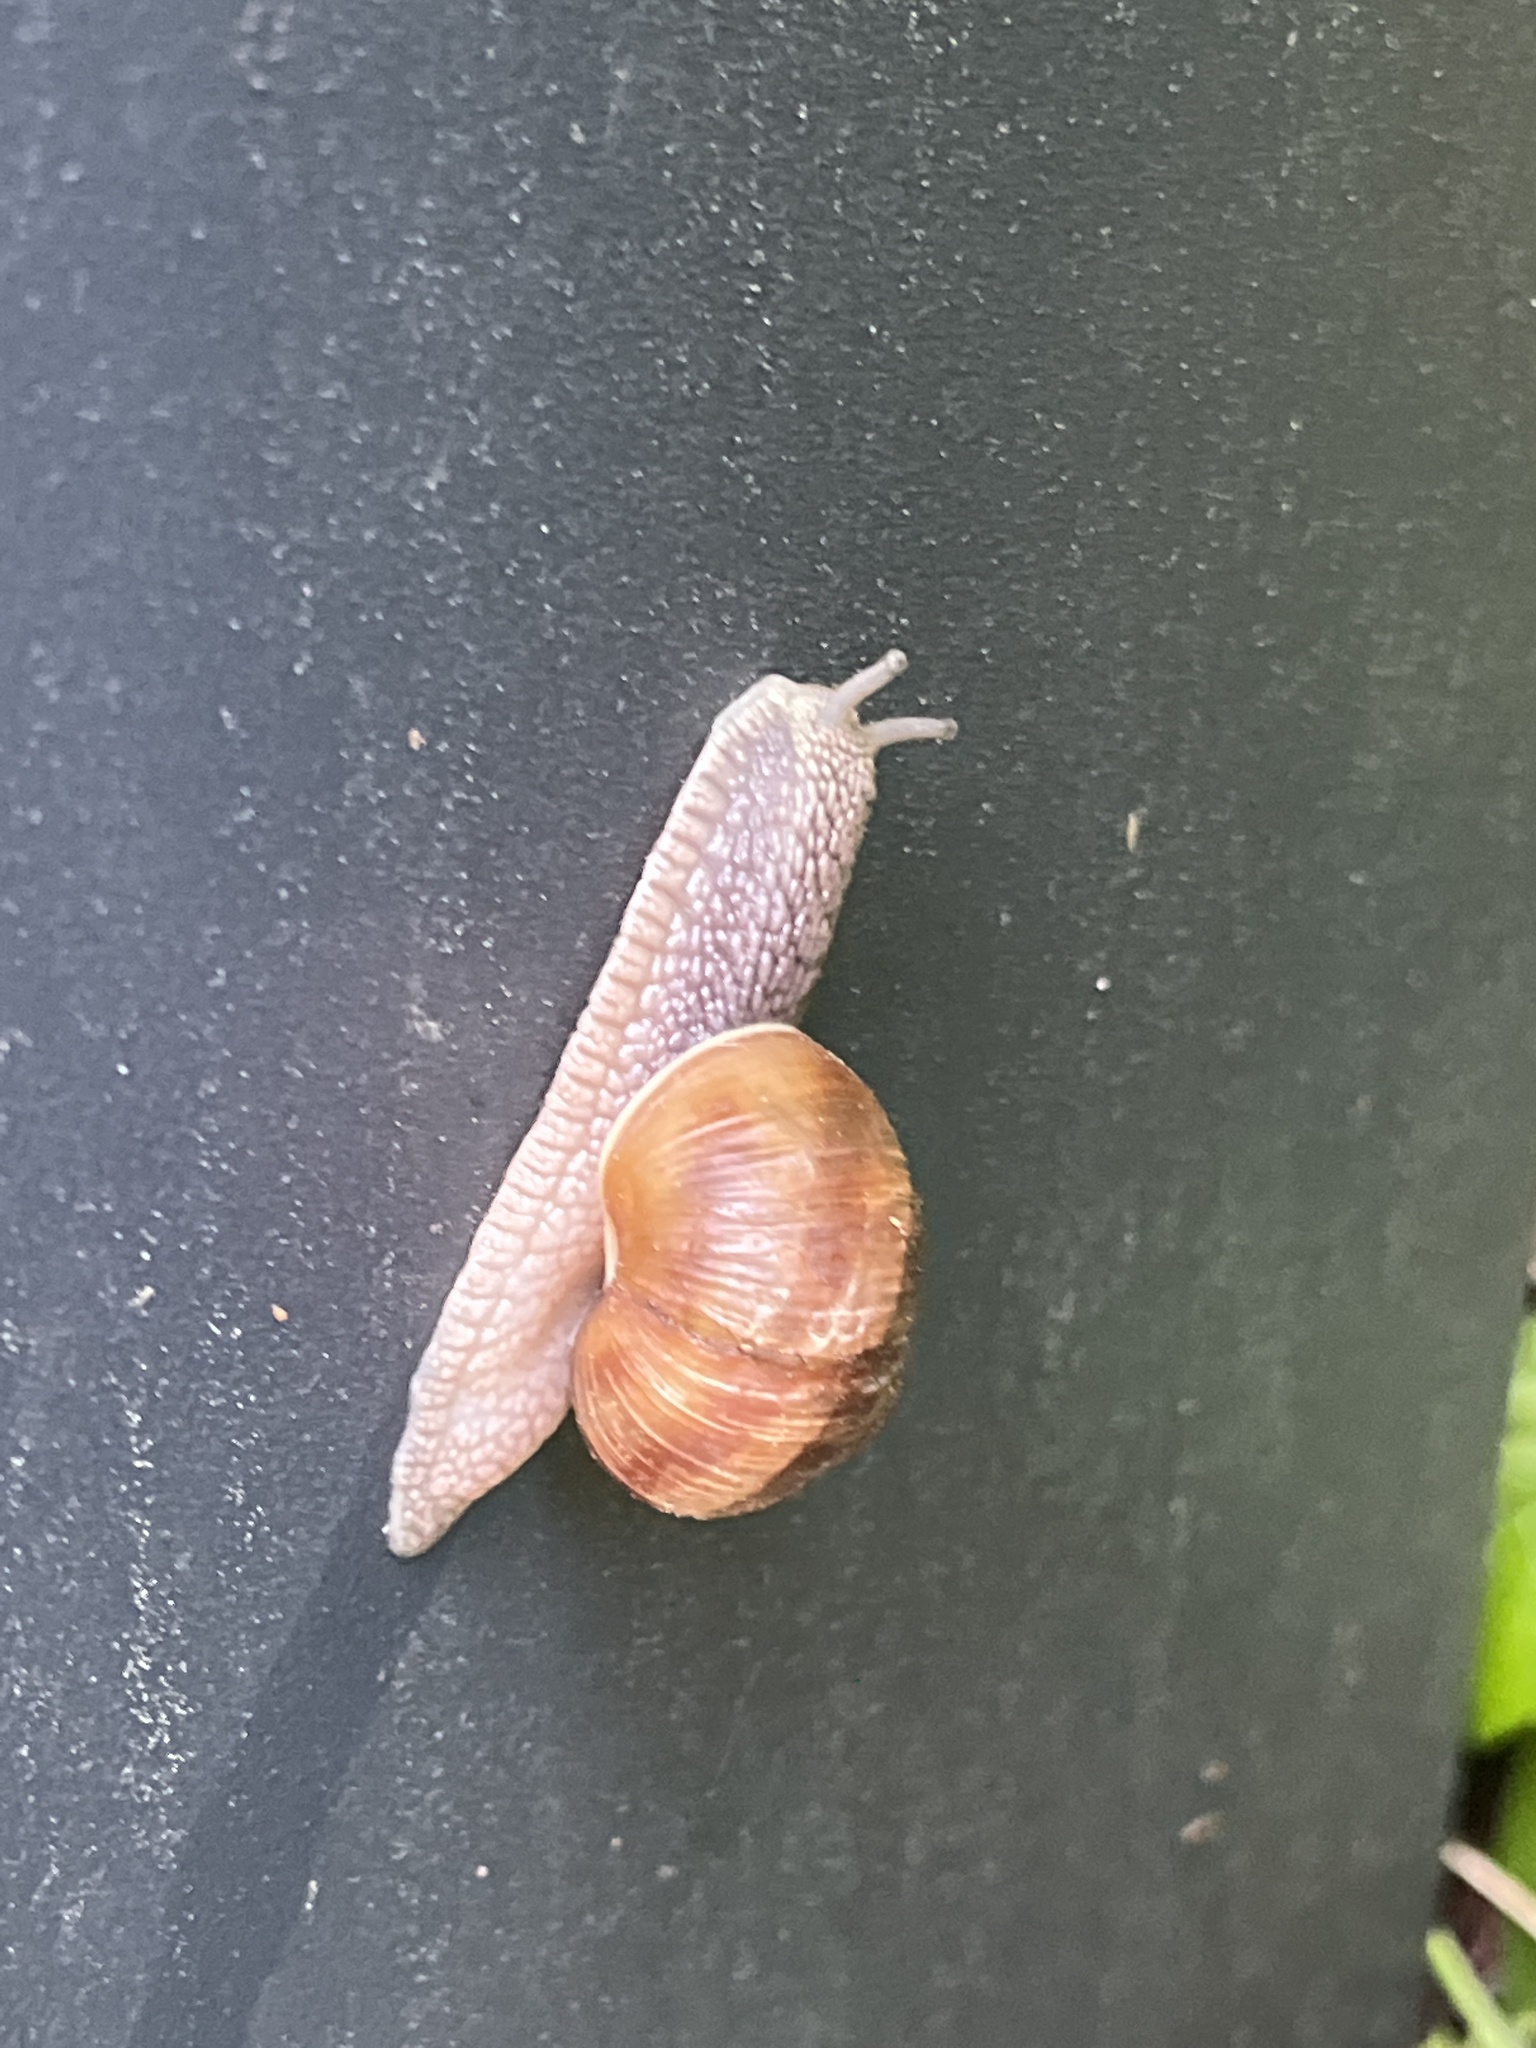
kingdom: Animalia
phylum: Mollusca
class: Gastropoda
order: Stylommatophora
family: Helicidae
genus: Helix
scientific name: Helix pomatia
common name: Roman snail
